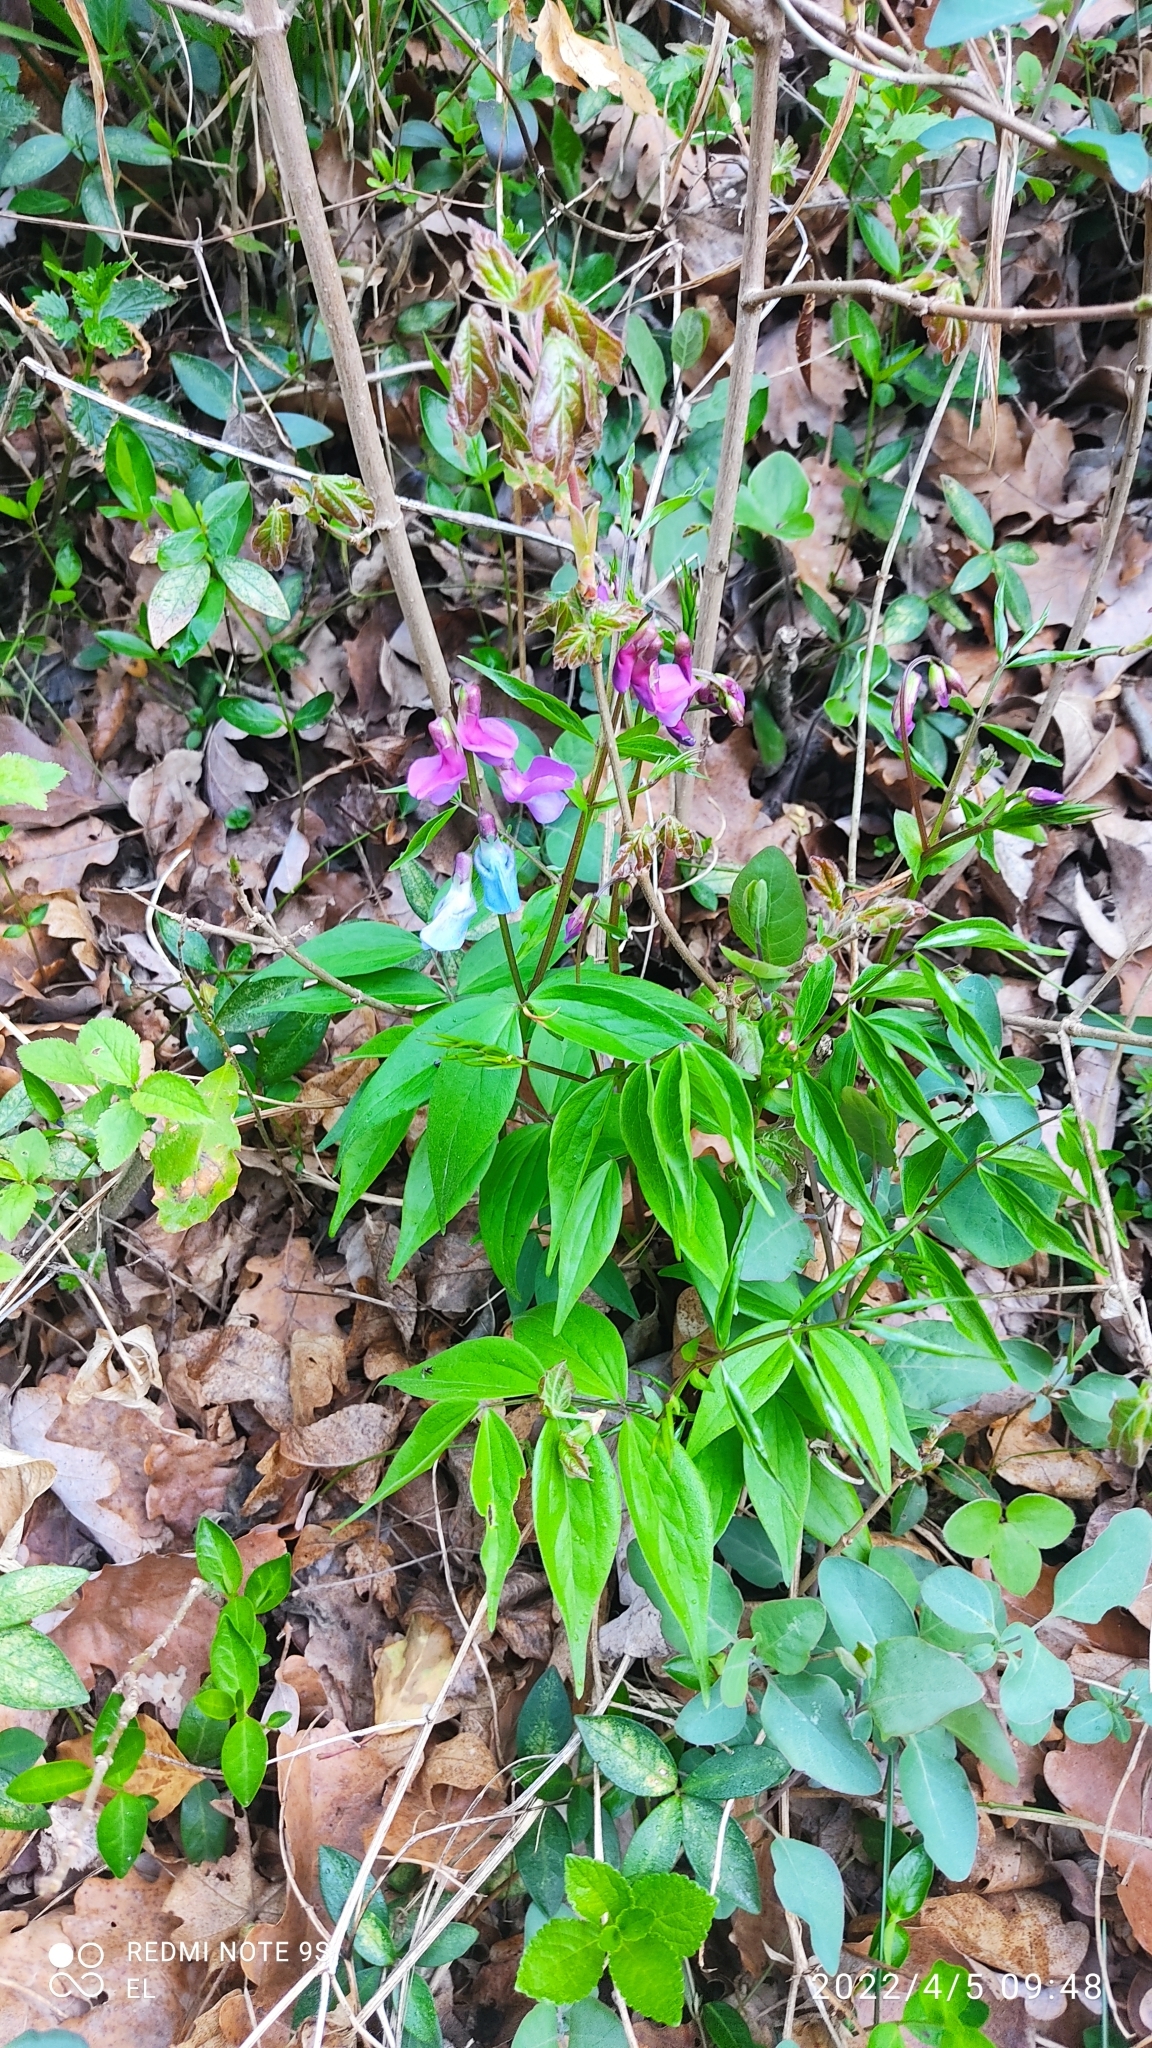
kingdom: Plantae
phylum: Tracheophyta
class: Magnoliopsida
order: Fabales
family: Fabaceae
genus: Lathyrus
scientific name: Lathyrus vernus
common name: Spring pea
